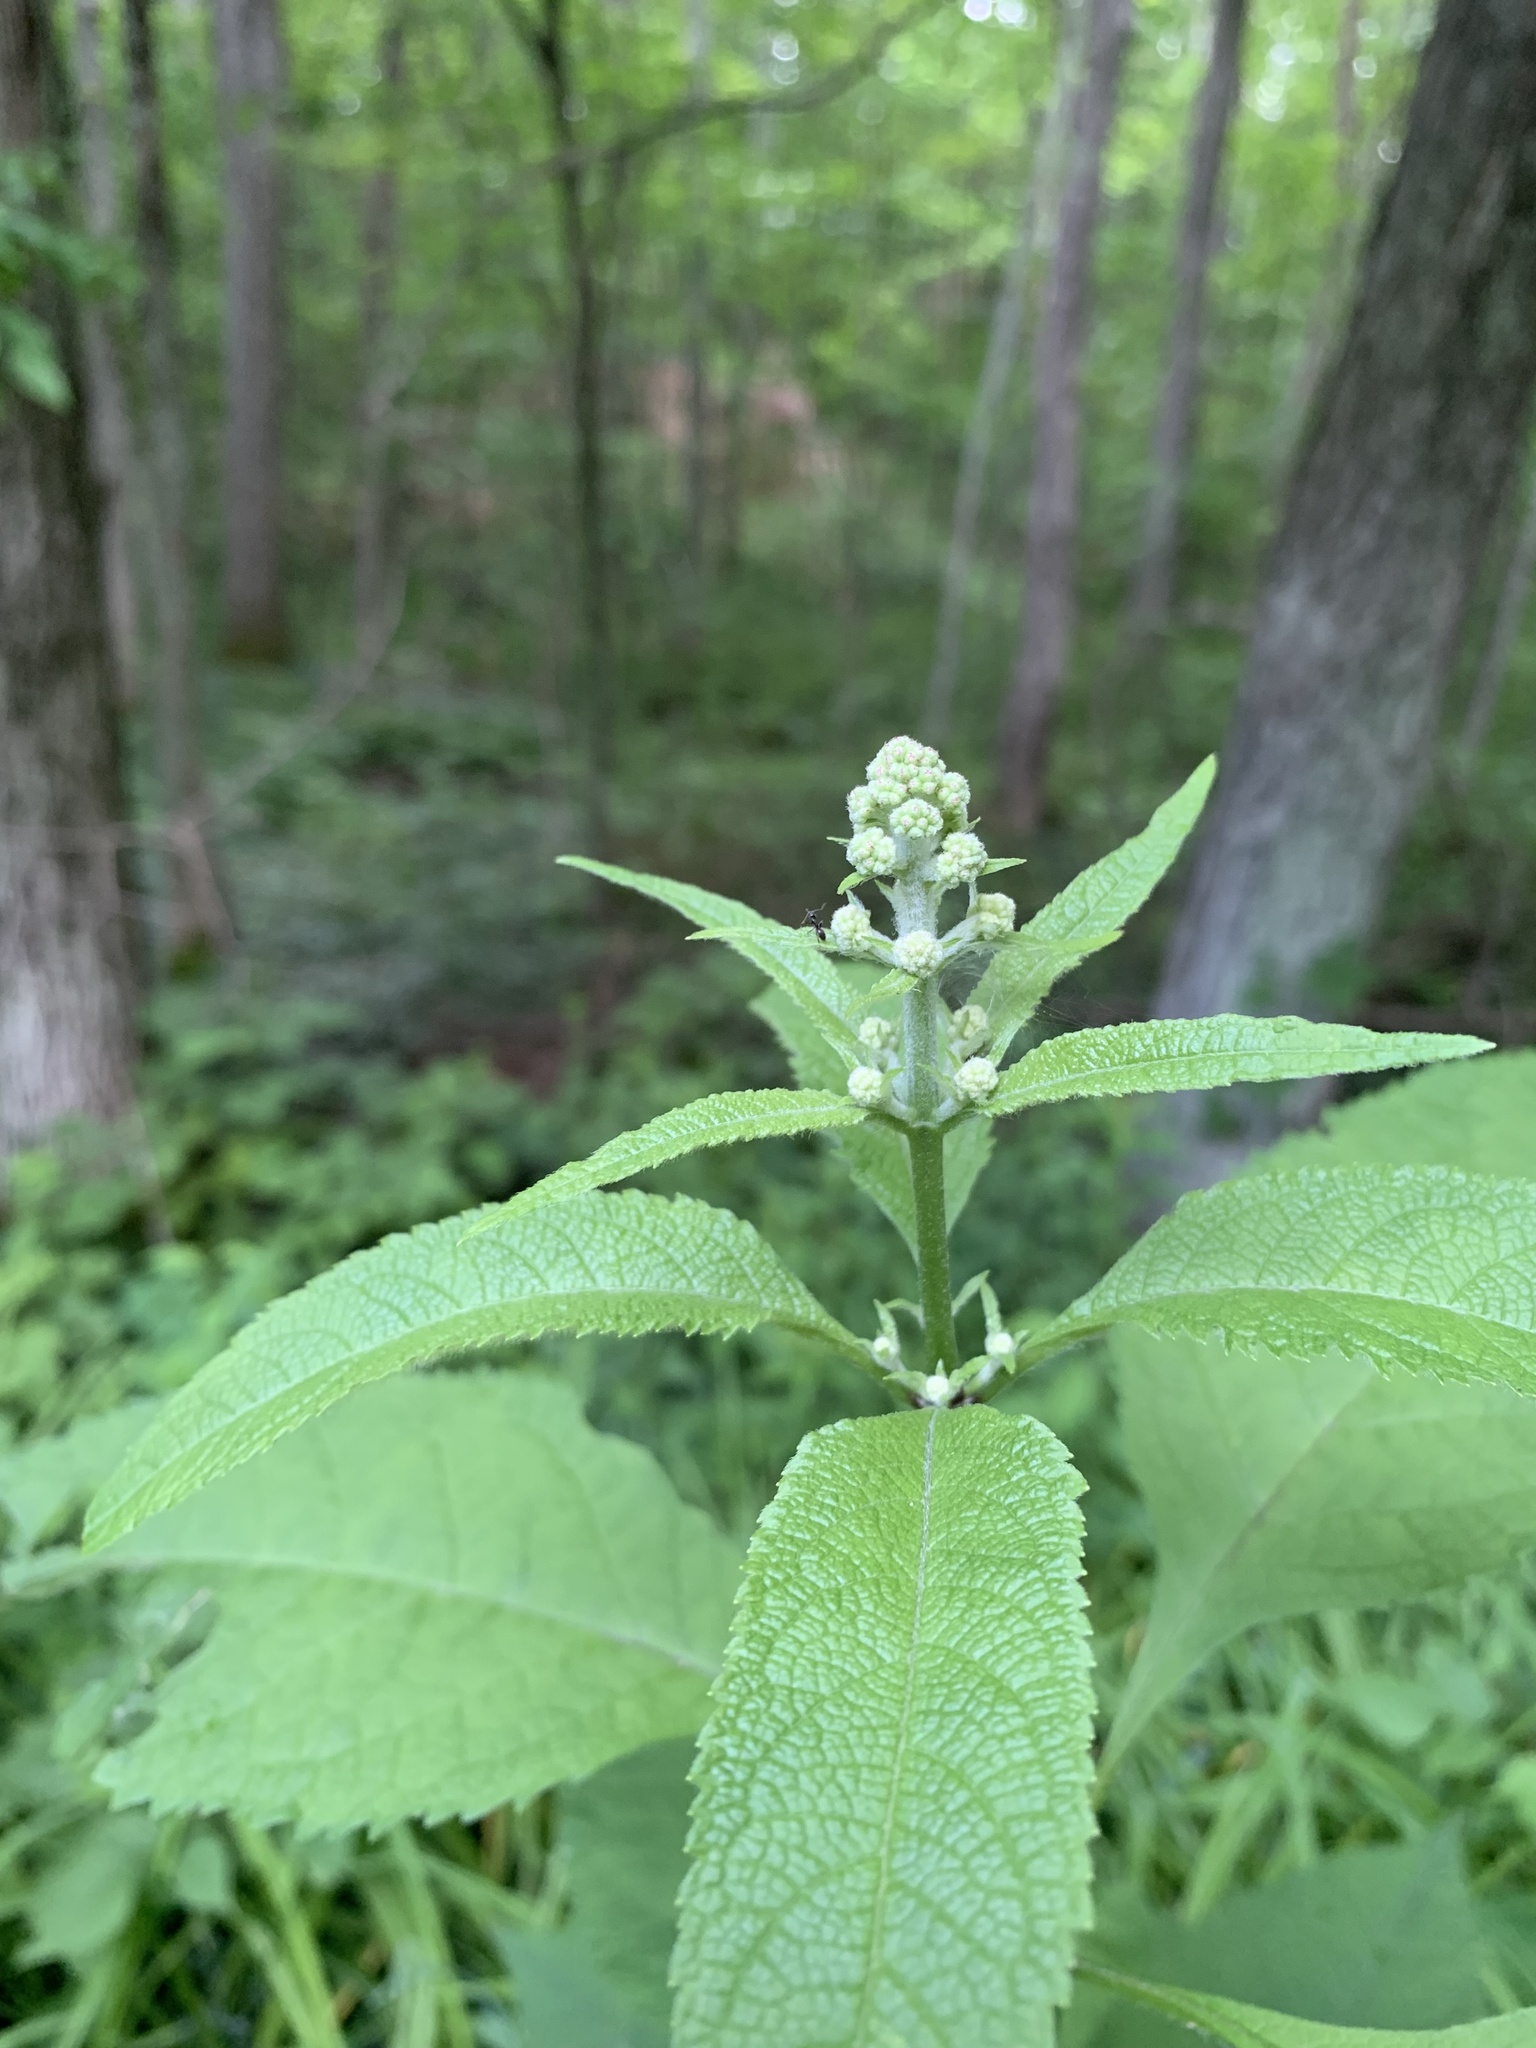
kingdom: Plantae
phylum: Tracheophyta
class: Magnoliopsida
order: Asterales
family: Asteraceae
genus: Eutrochium
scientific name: Eutrochium purpureum
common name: Gravelroot
